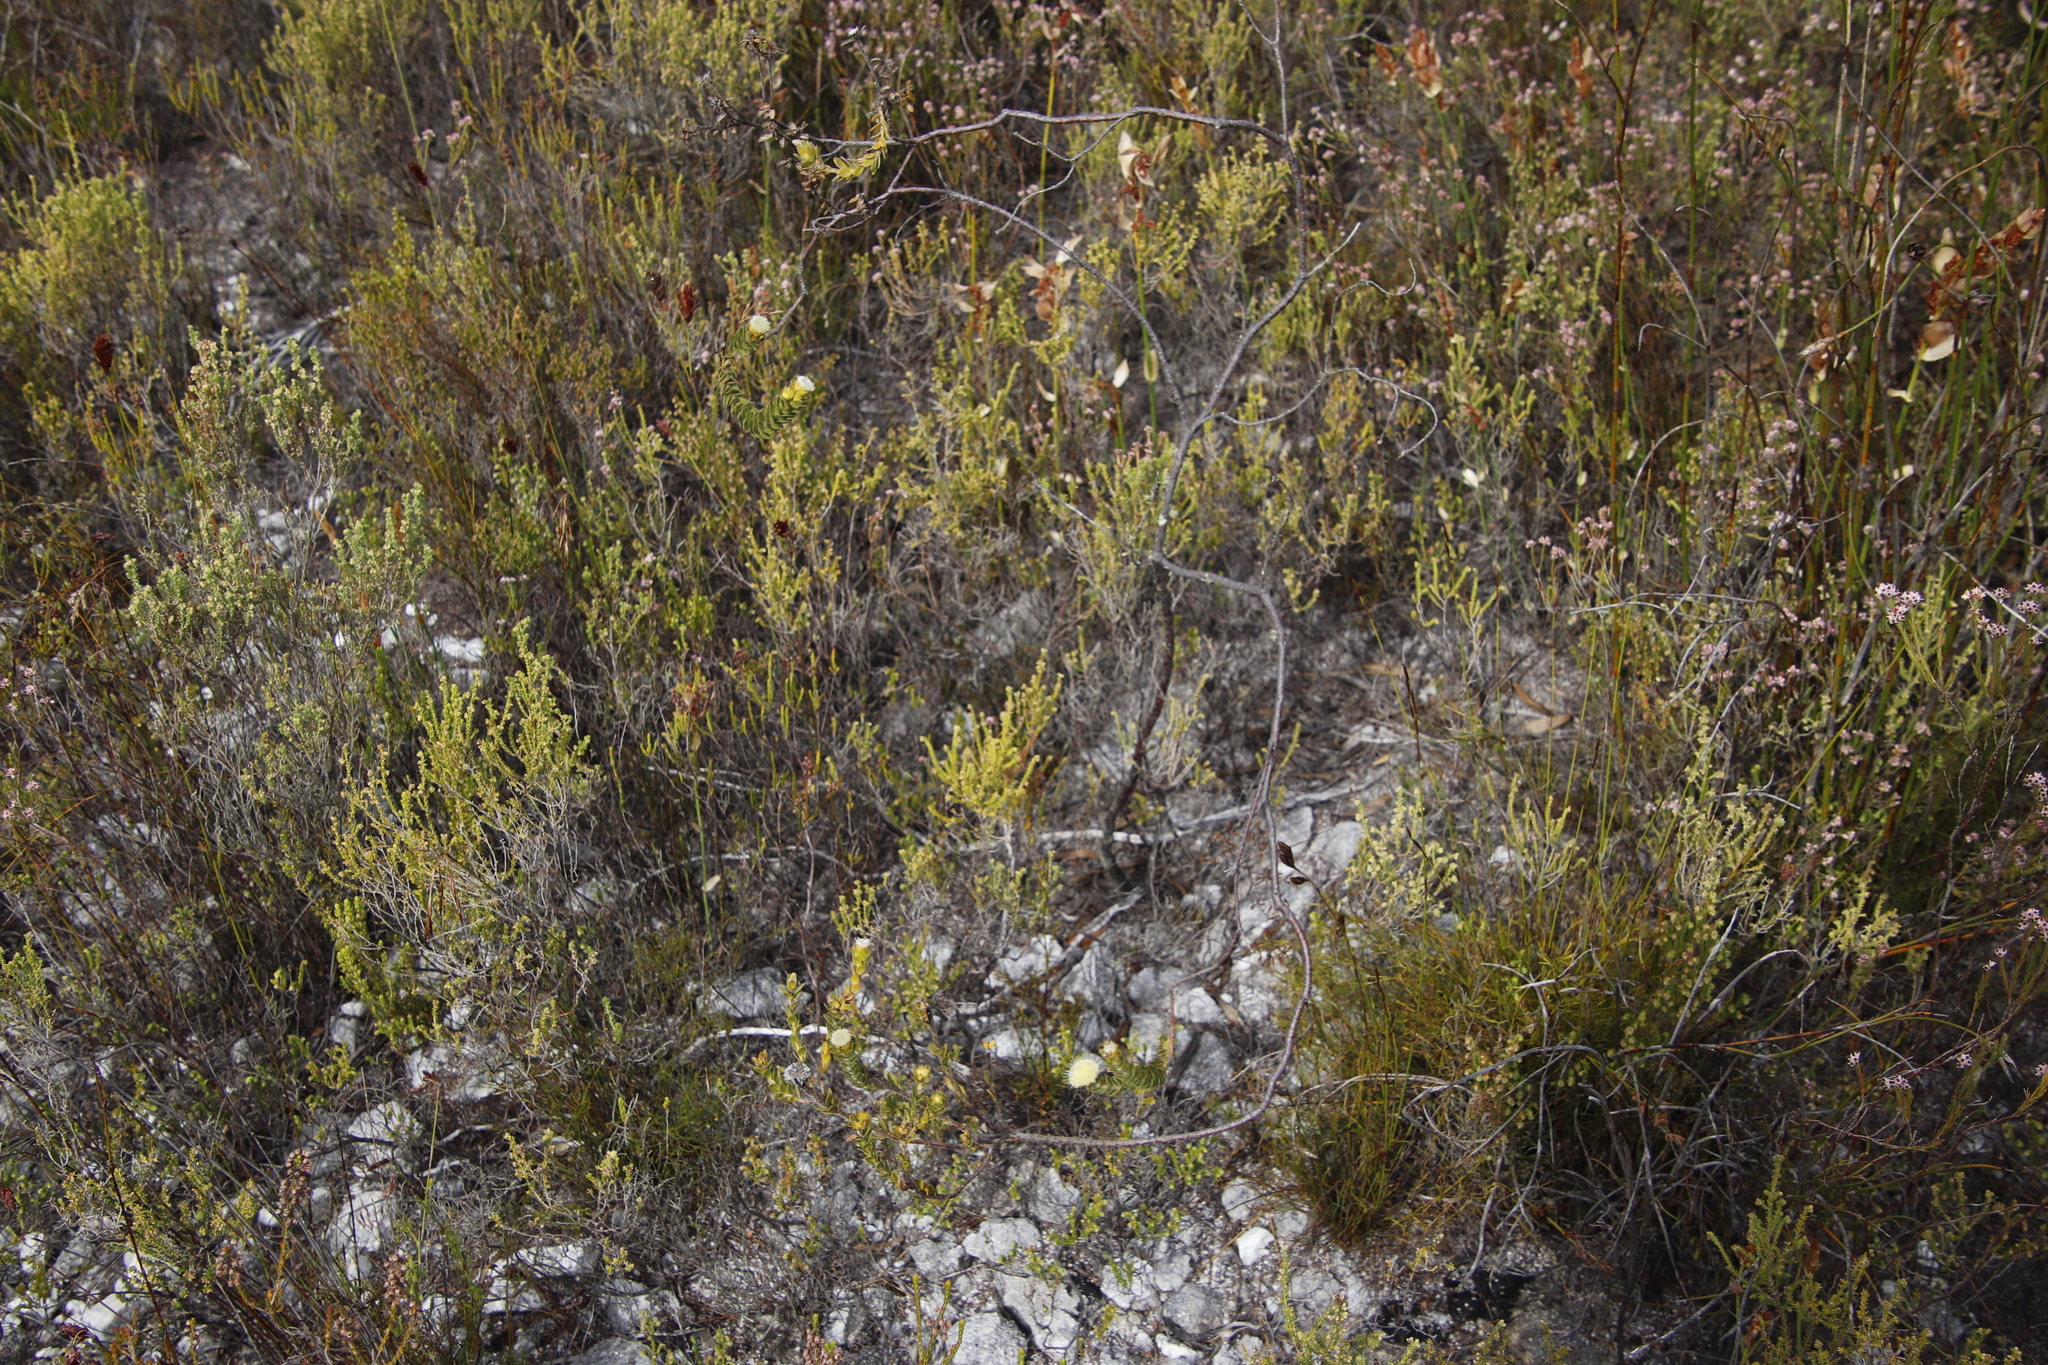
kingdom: Plantae
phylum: Tracheophyta
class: Magnoliopsida
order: Proteales
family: Proteaceae
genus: Diastella
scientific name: Diastella thymelaeoides
